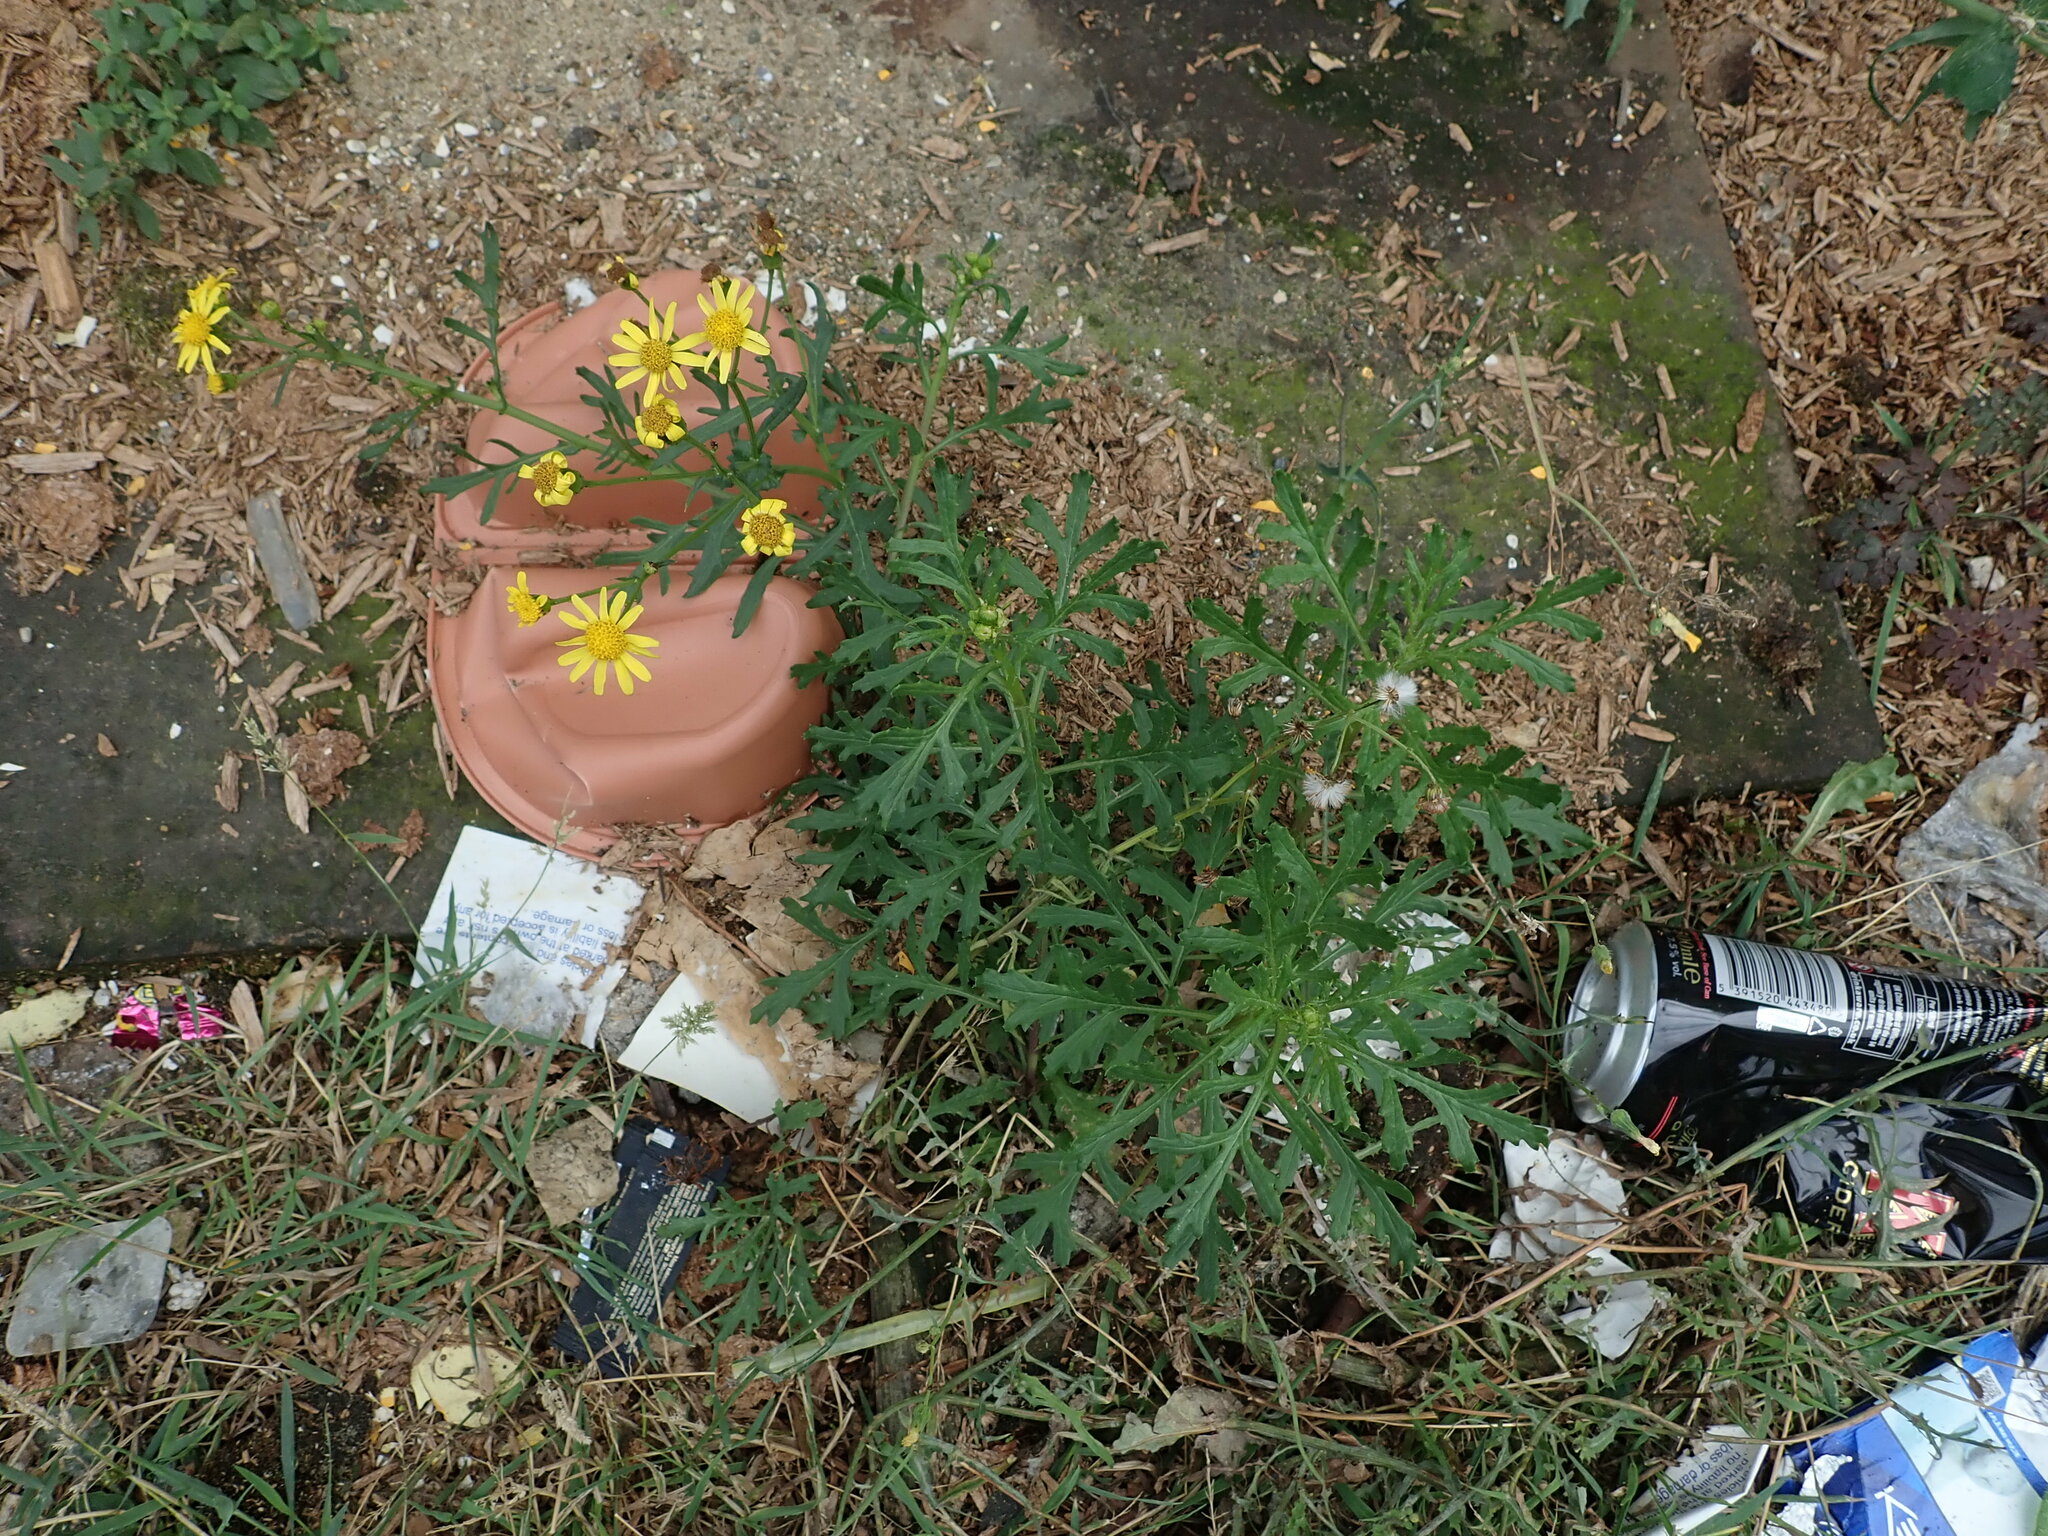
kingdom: Plantae
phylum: Tracheophyta
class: Magnoliopsida
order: Asterales
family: Asteraceae
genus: Senecio
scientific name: Senecio squalidus
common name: Oxford ragwort
